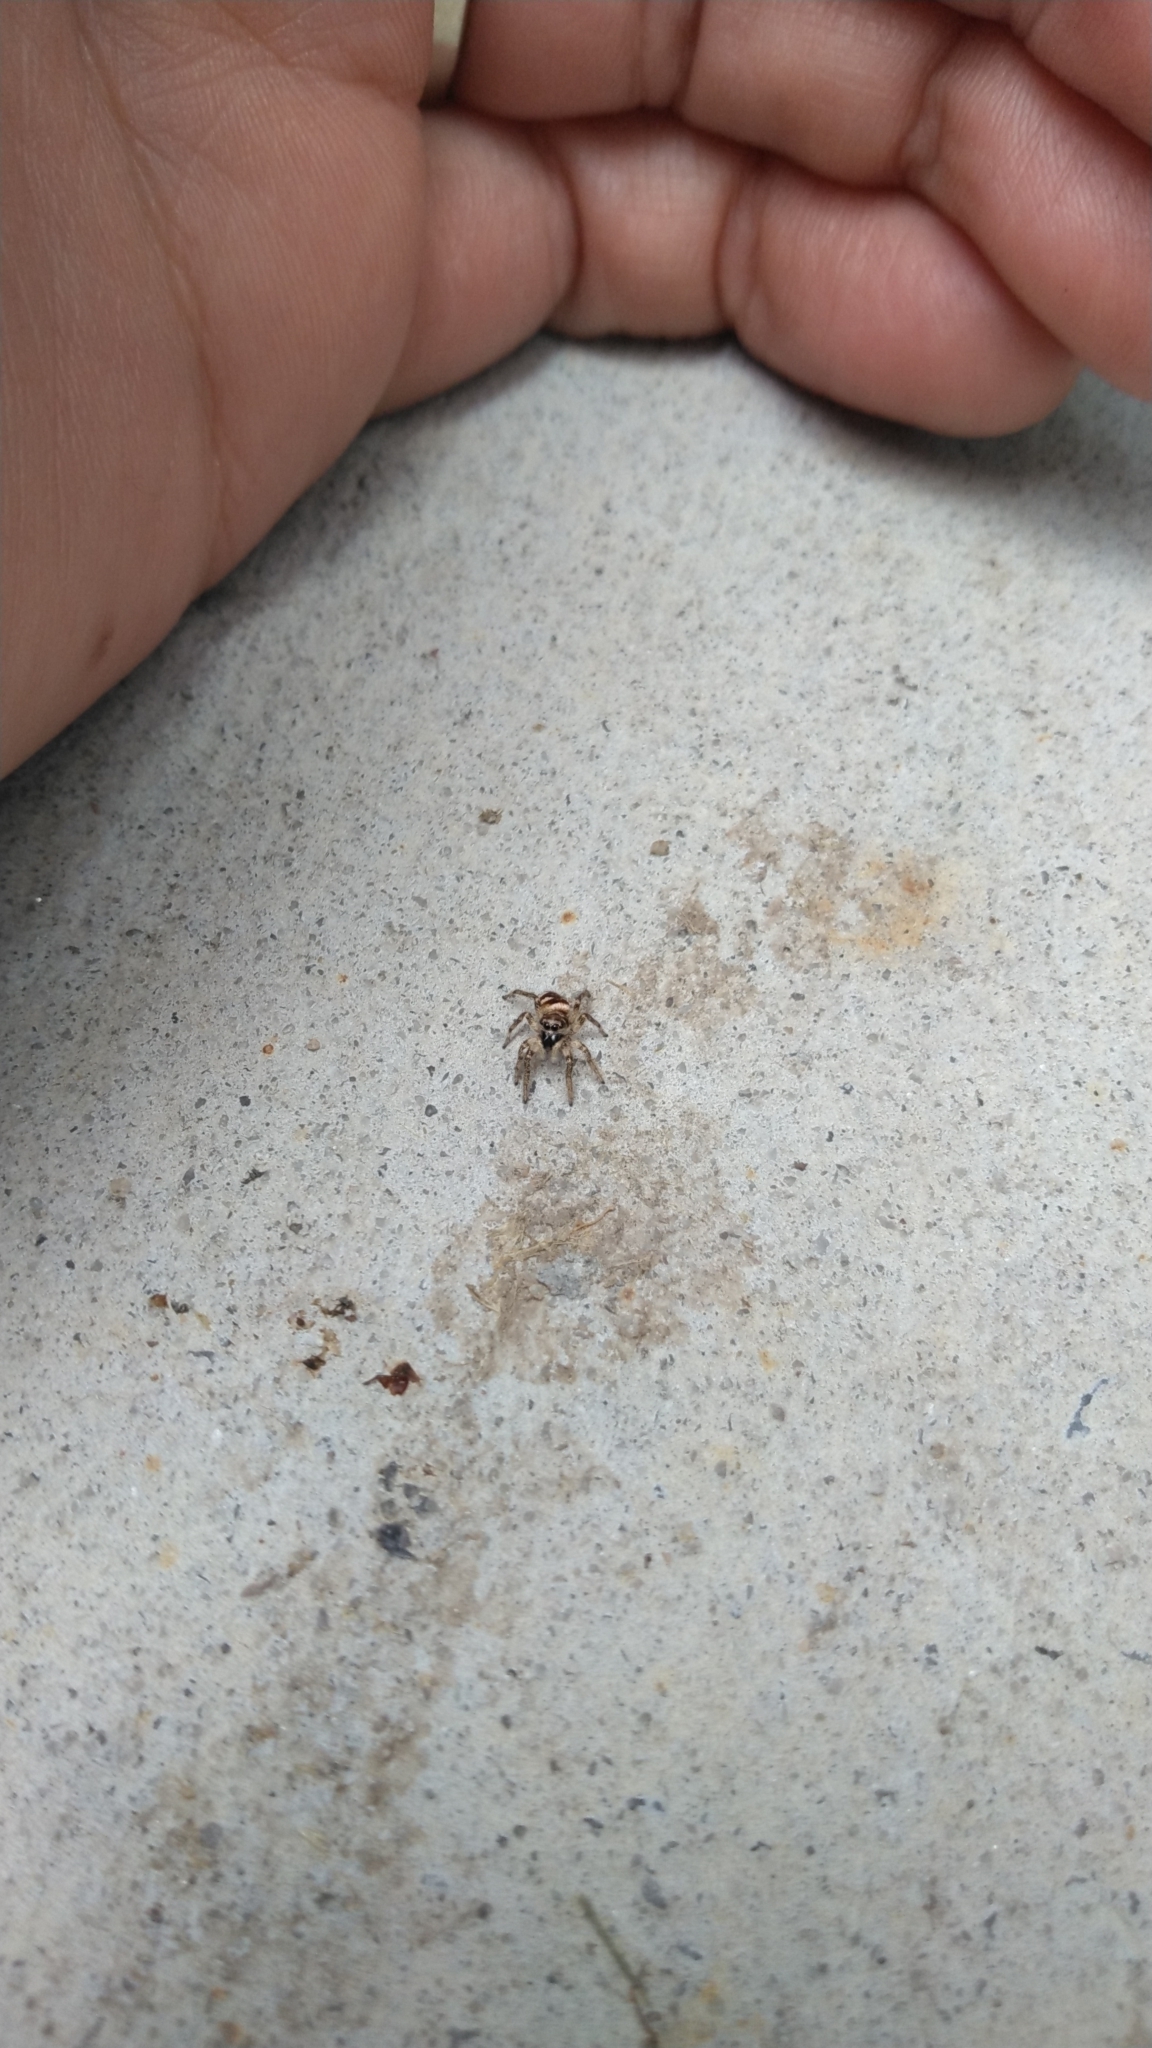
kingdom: Animalia
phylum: Arthropoda
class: Arachnida
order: Araneae
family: Salticidae
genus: Salticus
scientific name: Salticus scenicus
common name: Zebra jumper
